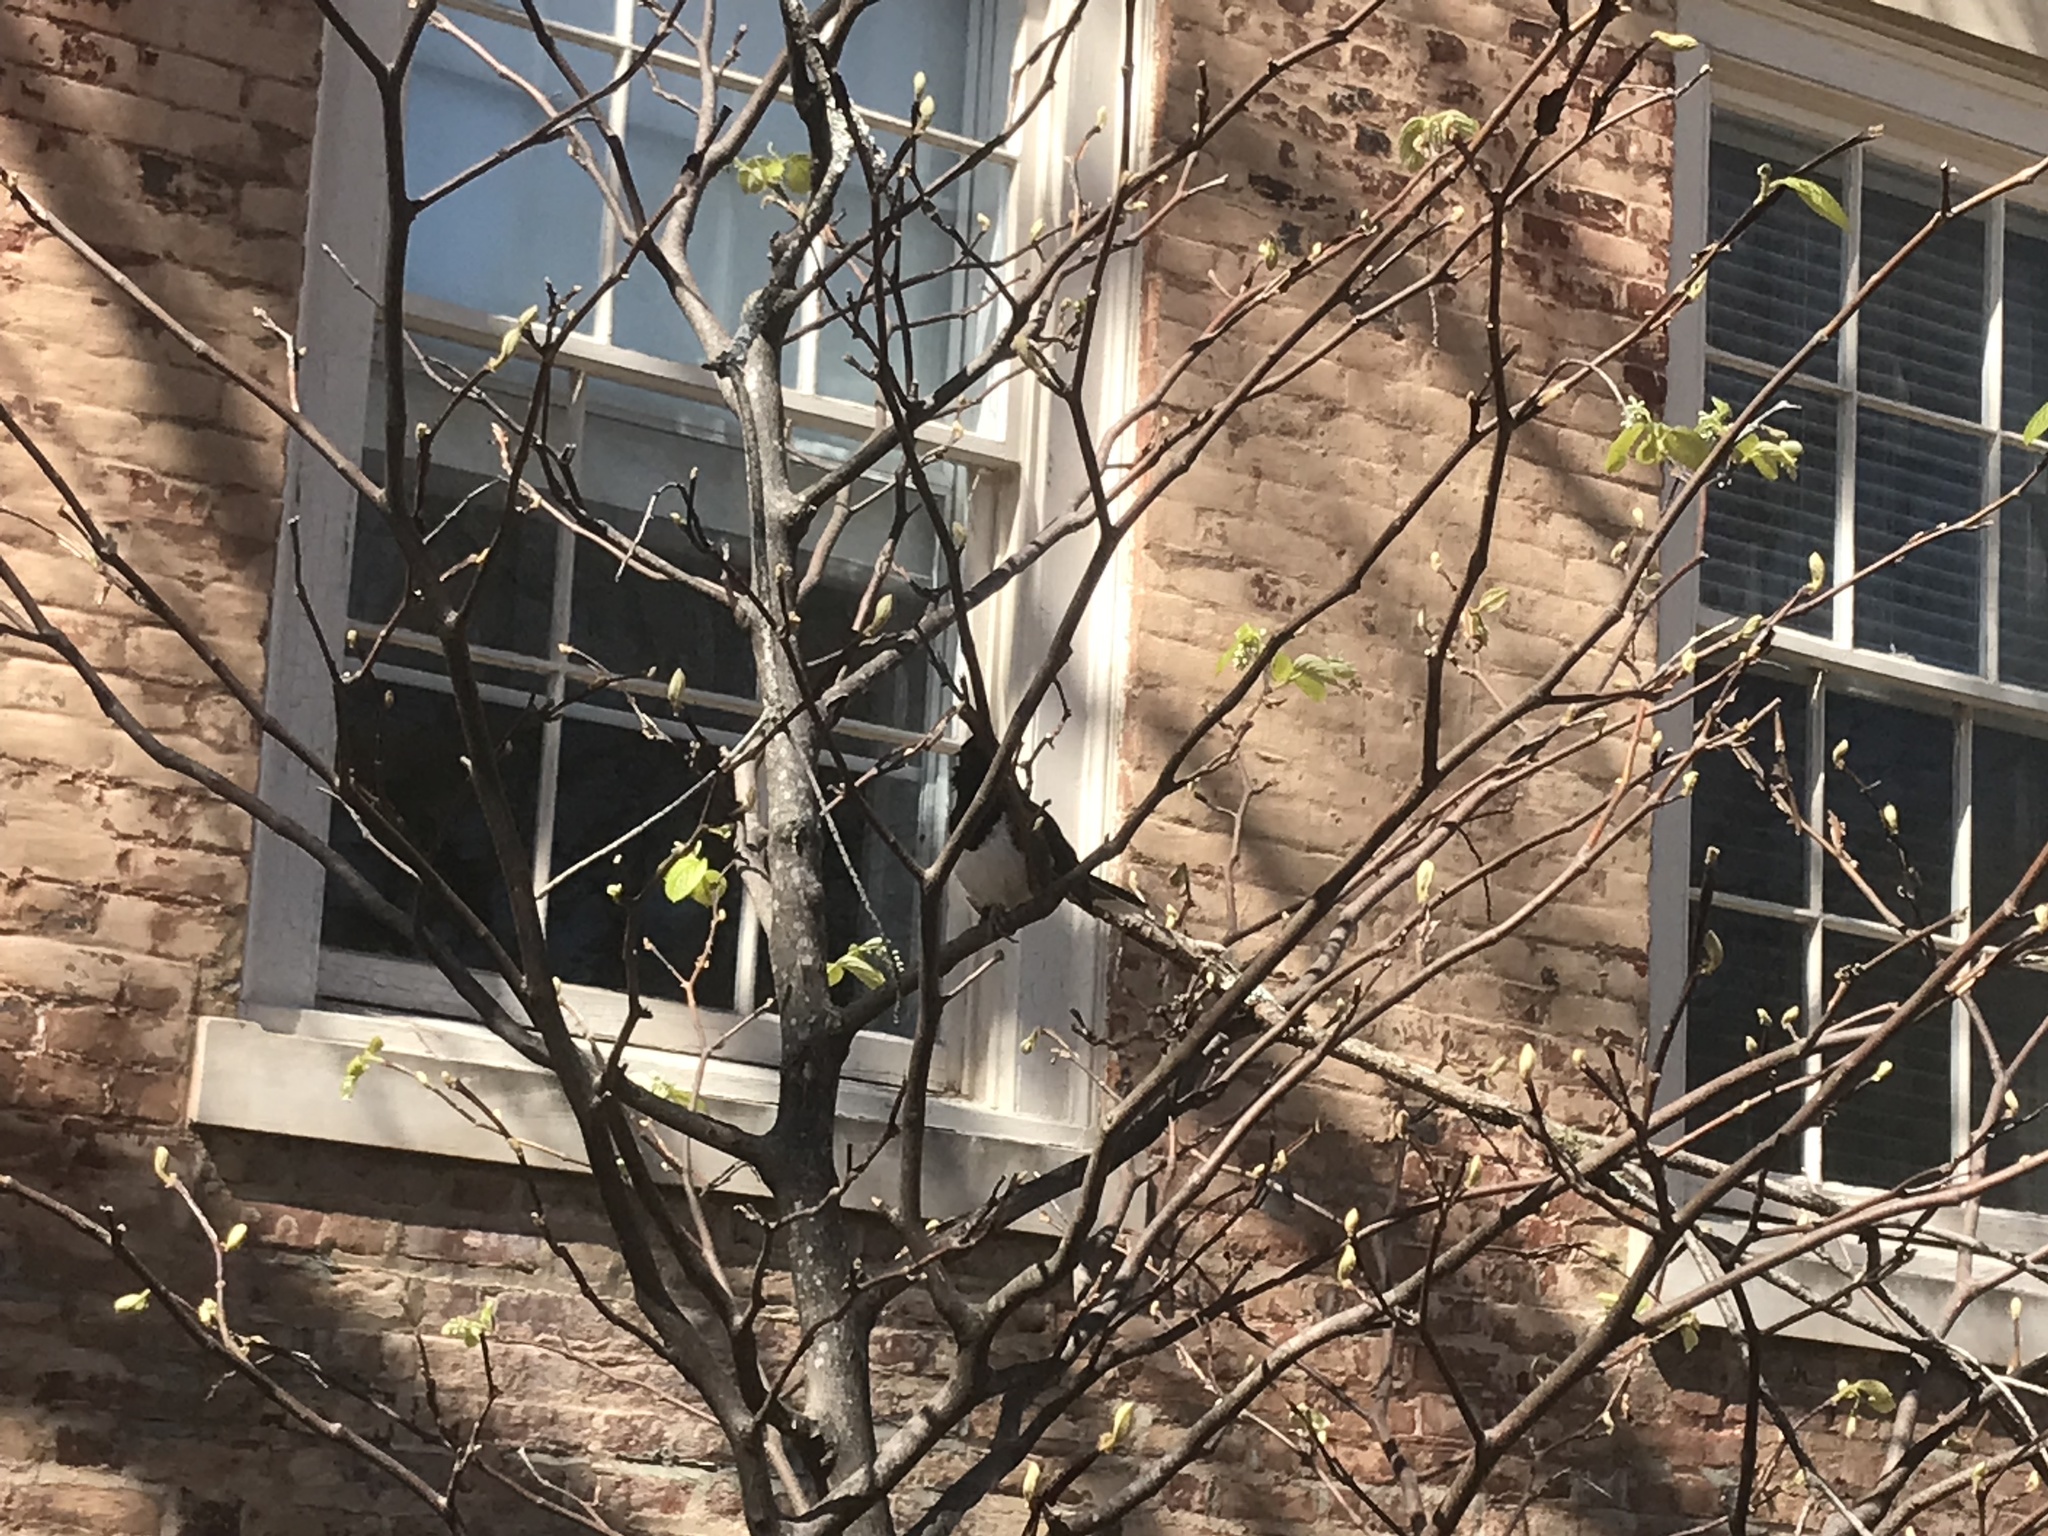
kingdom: Animalia
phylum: Chordata
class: Aves
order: Passeriformes
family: Passerellidae
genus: Pipilo
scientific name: Pipilo erythrophthalmus
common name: Eastern towhee
